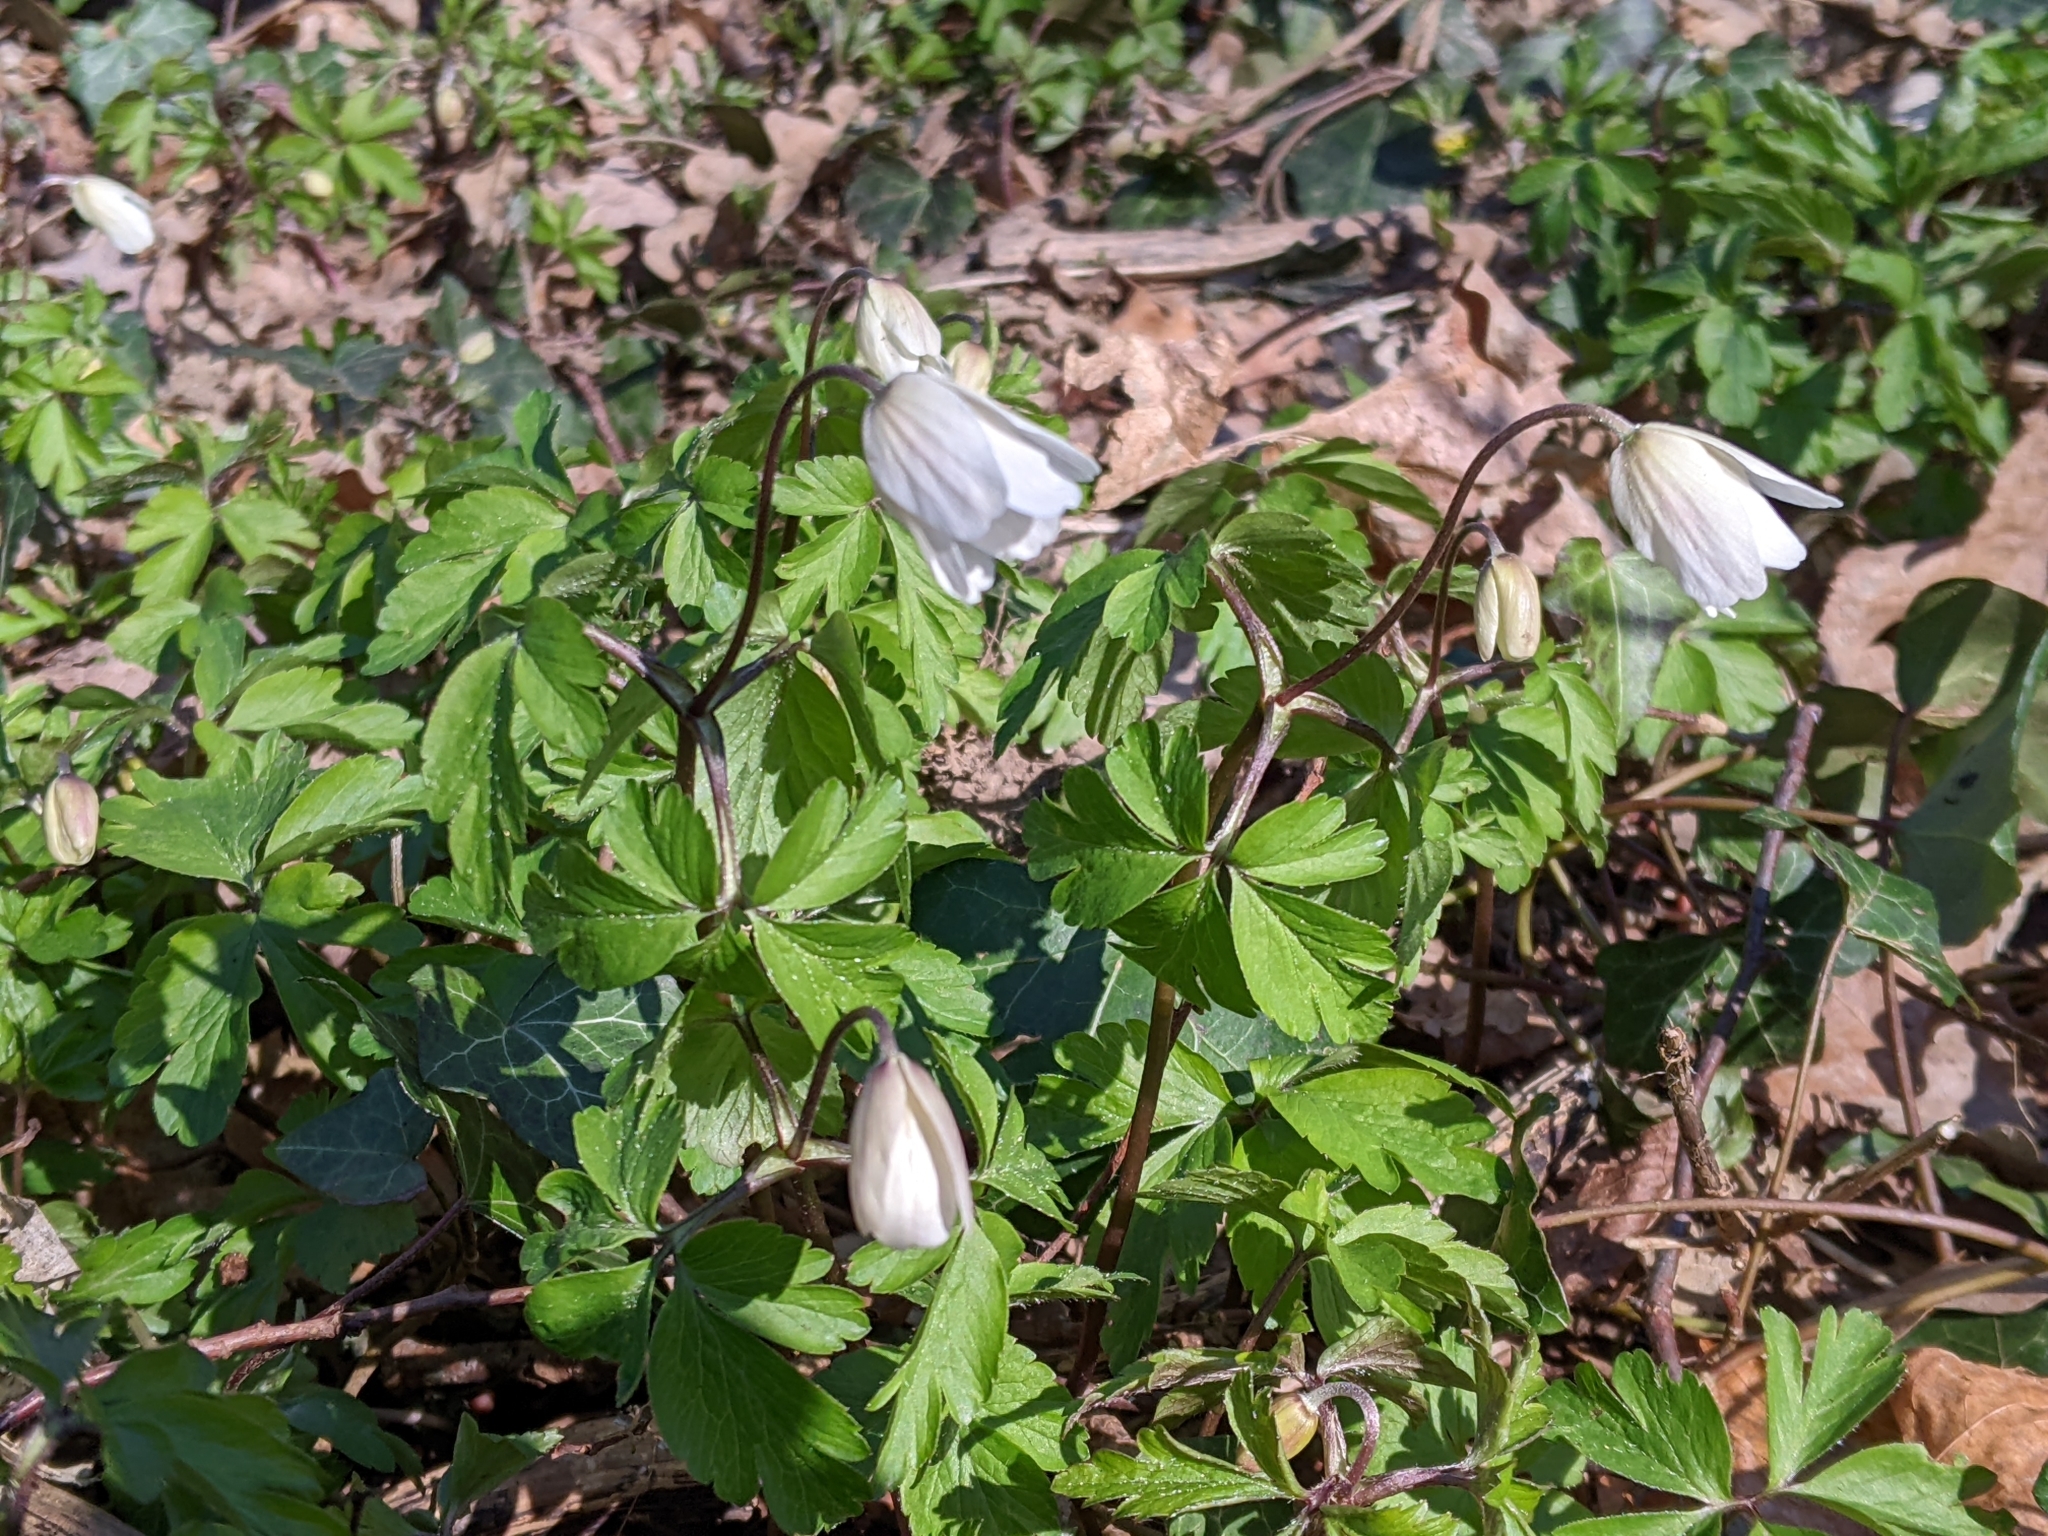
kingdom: Plantae
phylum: Tracheophyta
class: Magnoliopsida
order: Ranunculales
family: Ranunculaceae
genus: Anemone
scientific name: Anemone nemorosa
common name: Wood anemone
